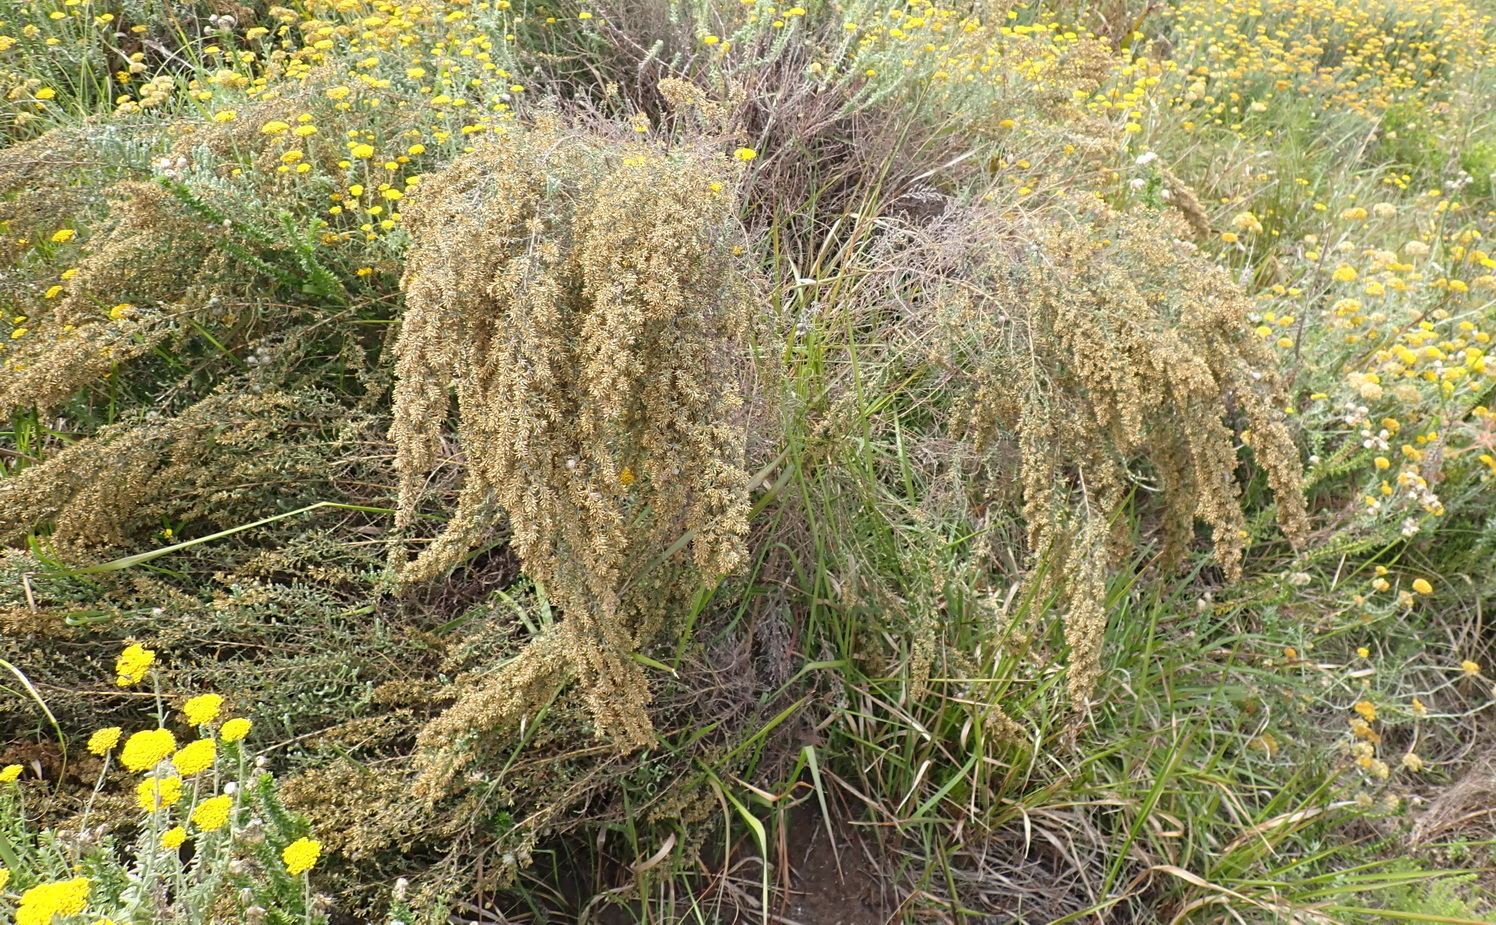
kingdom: Plantae
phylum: Tracheophyta
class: Magnoliopsida
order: Asterales
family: Asteraceae
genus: Seriphium
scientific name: Seriphium cinereum
